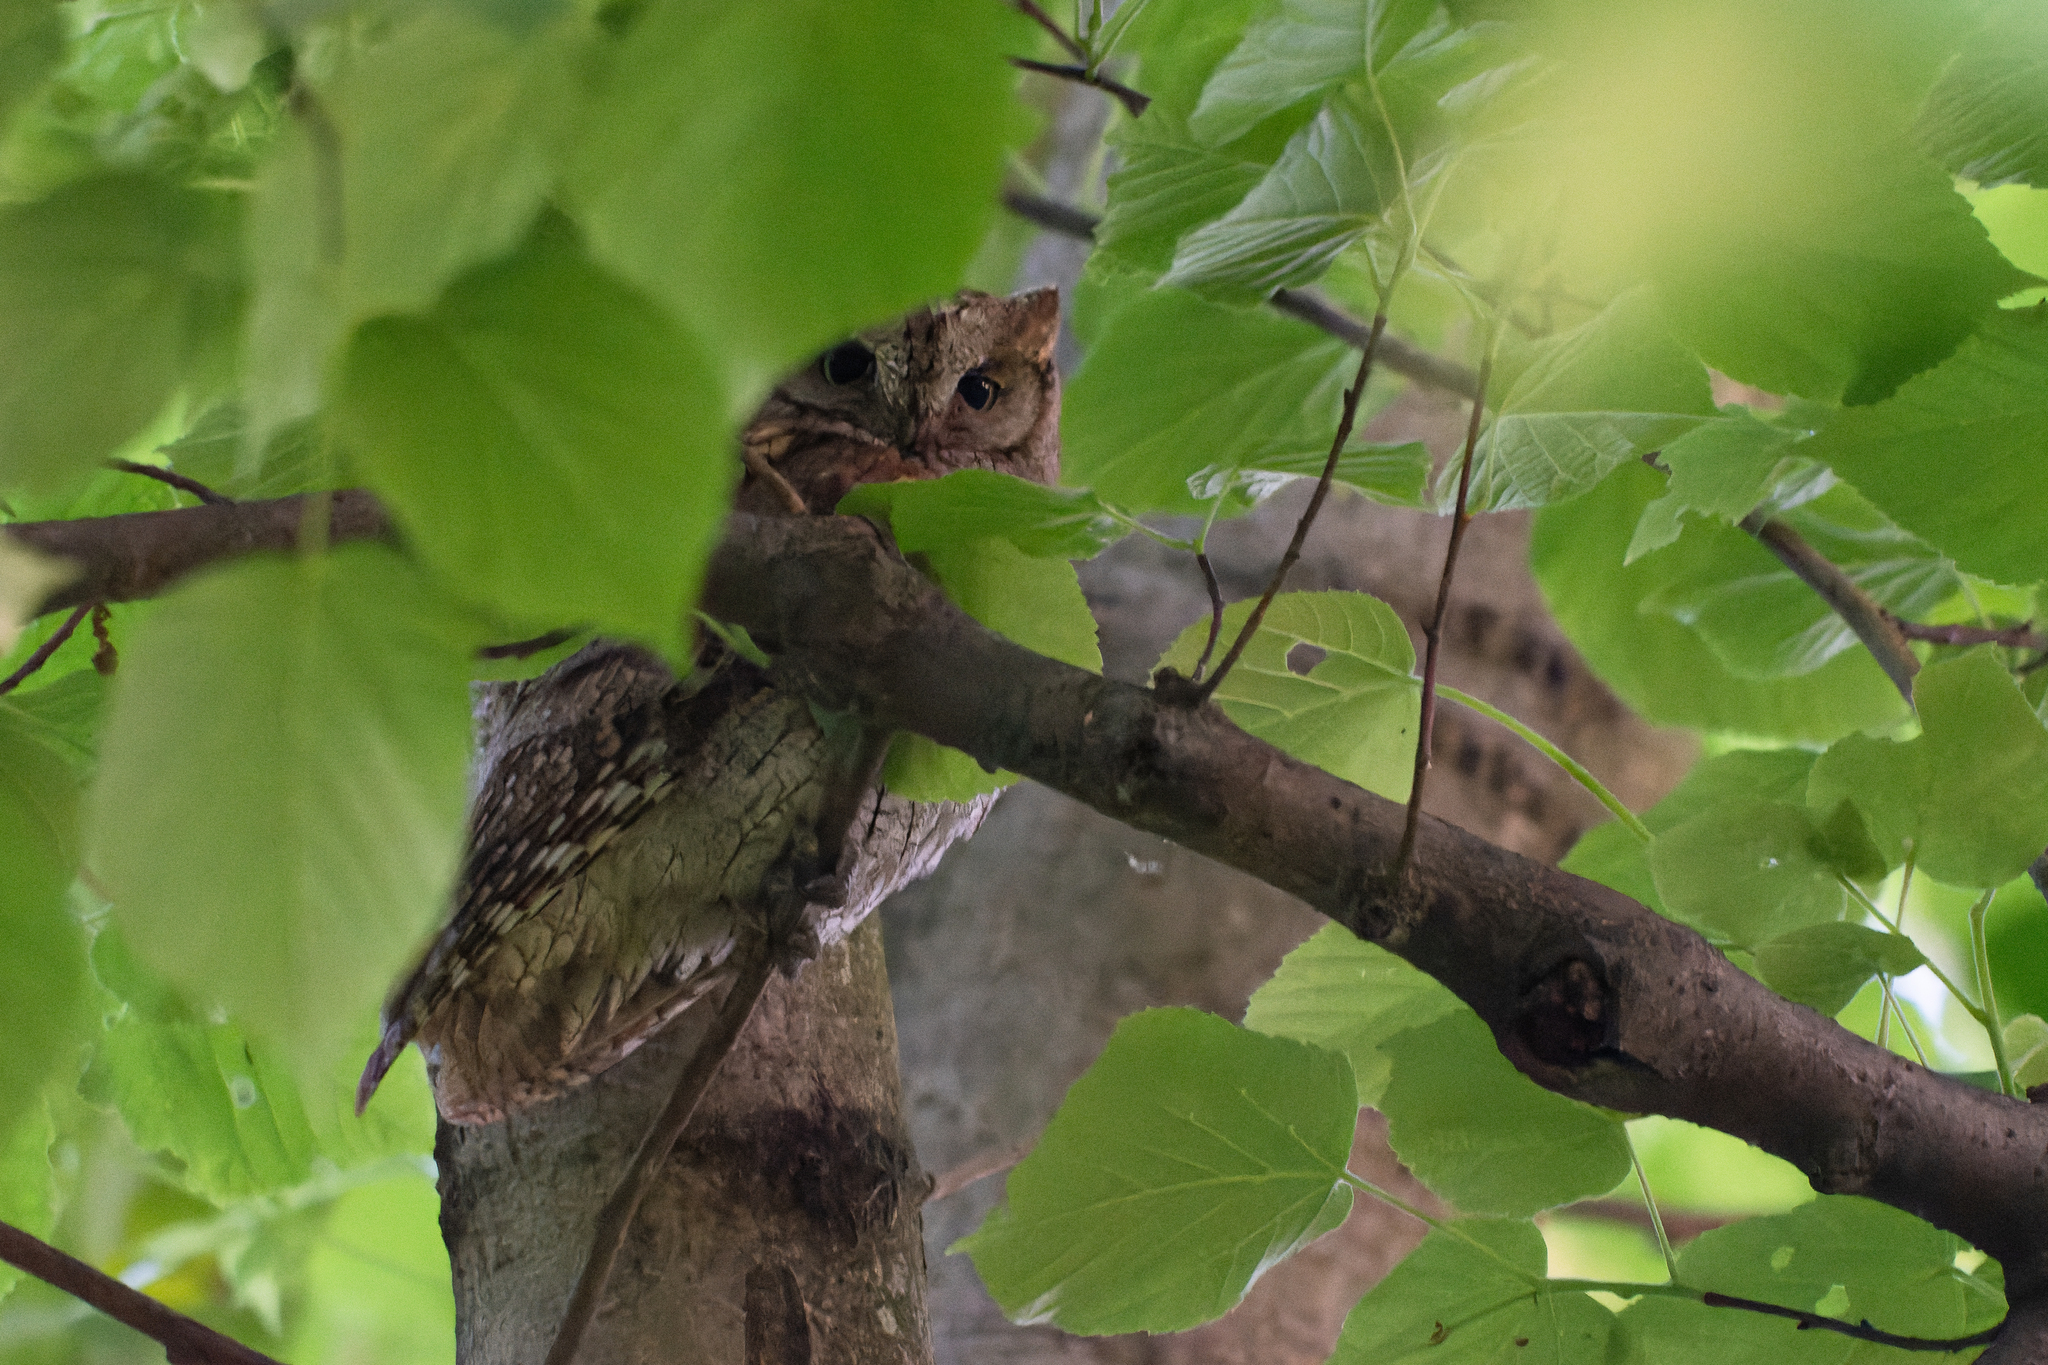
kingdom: Animalia
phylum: Chordata
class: Aves
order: Strigiformes
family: Strigidae
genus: Otus
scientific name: Otus scops
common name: Eurasian scops owl
